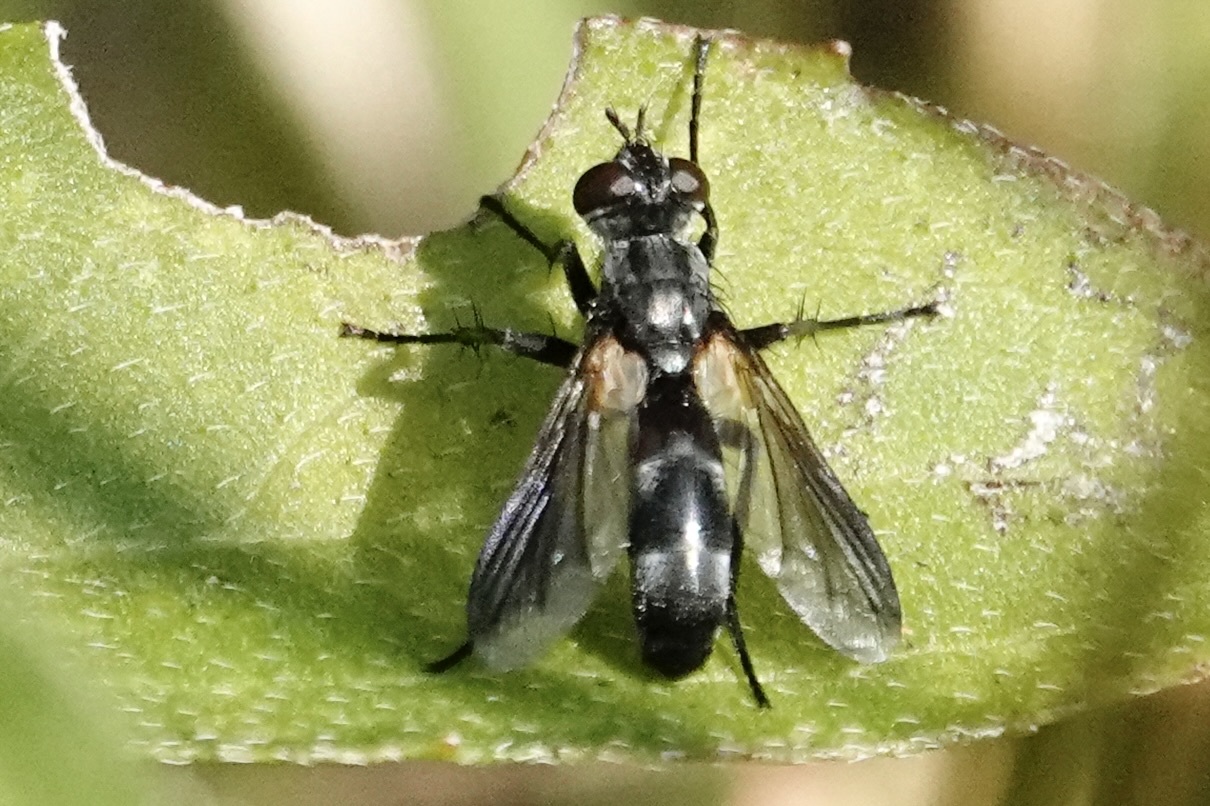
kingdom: Animalia
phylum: Arthropoda
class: Insecta
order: Diptera
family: Tachinidae
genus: Cylindromyia
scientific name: Cylindromyia propusilla
